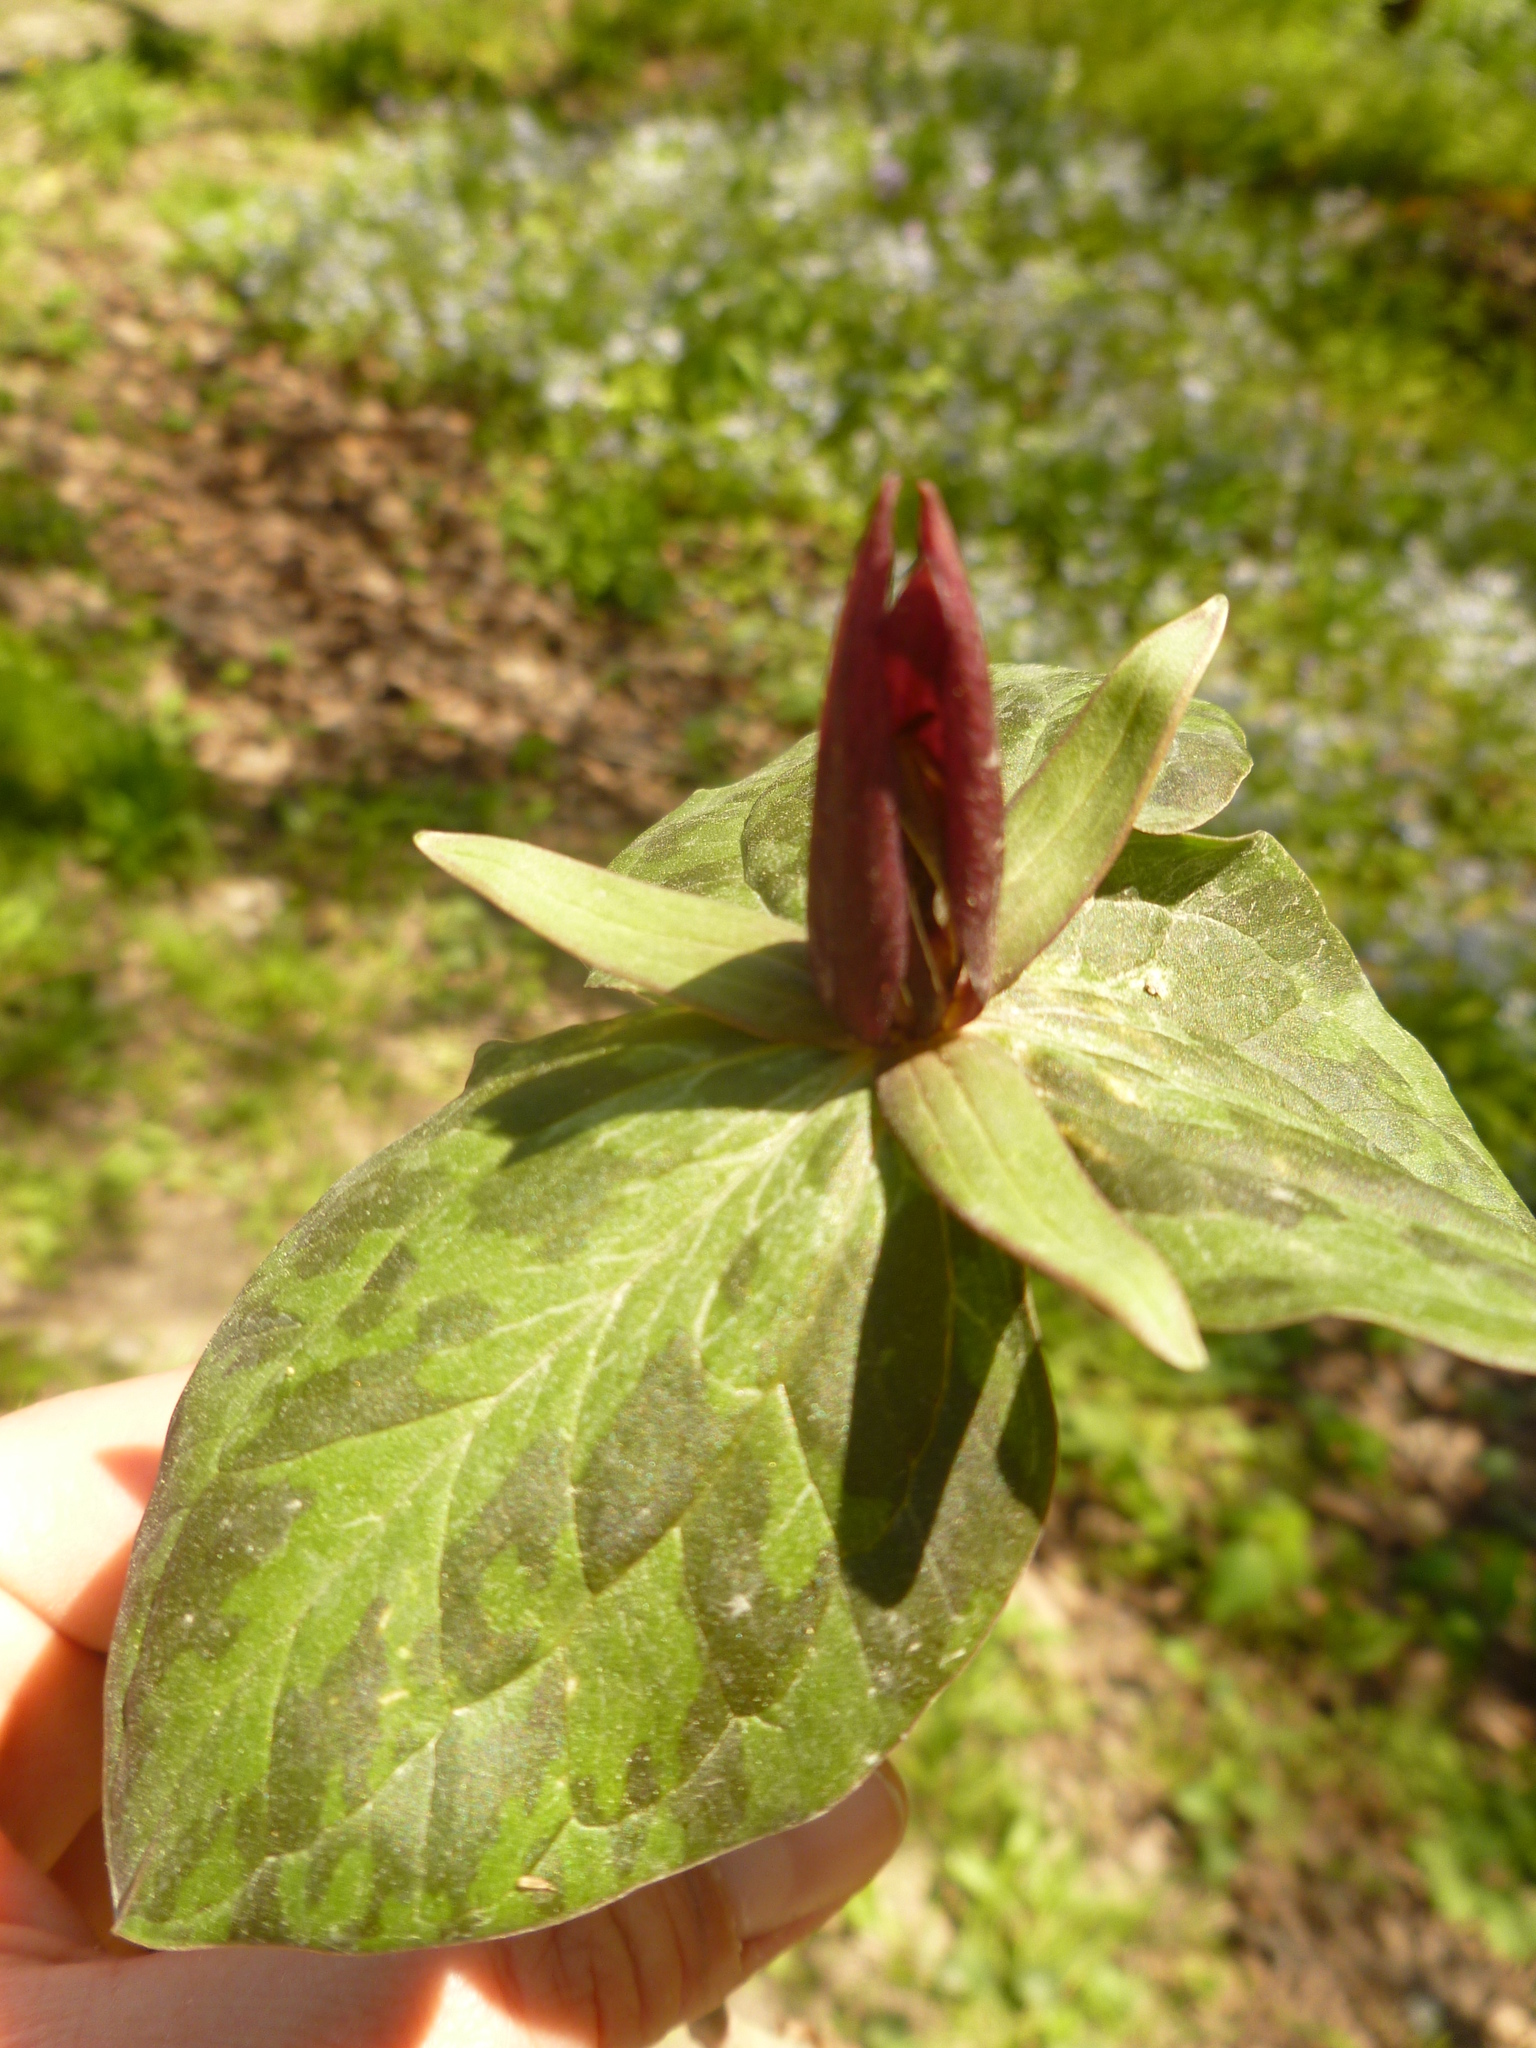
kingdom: Plantae
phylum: Tracheophyta
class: Liliopsida
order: Liliales
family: Melanthiaceae
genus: Trillium
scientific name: Trillium sessile
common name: Sessile trillium
